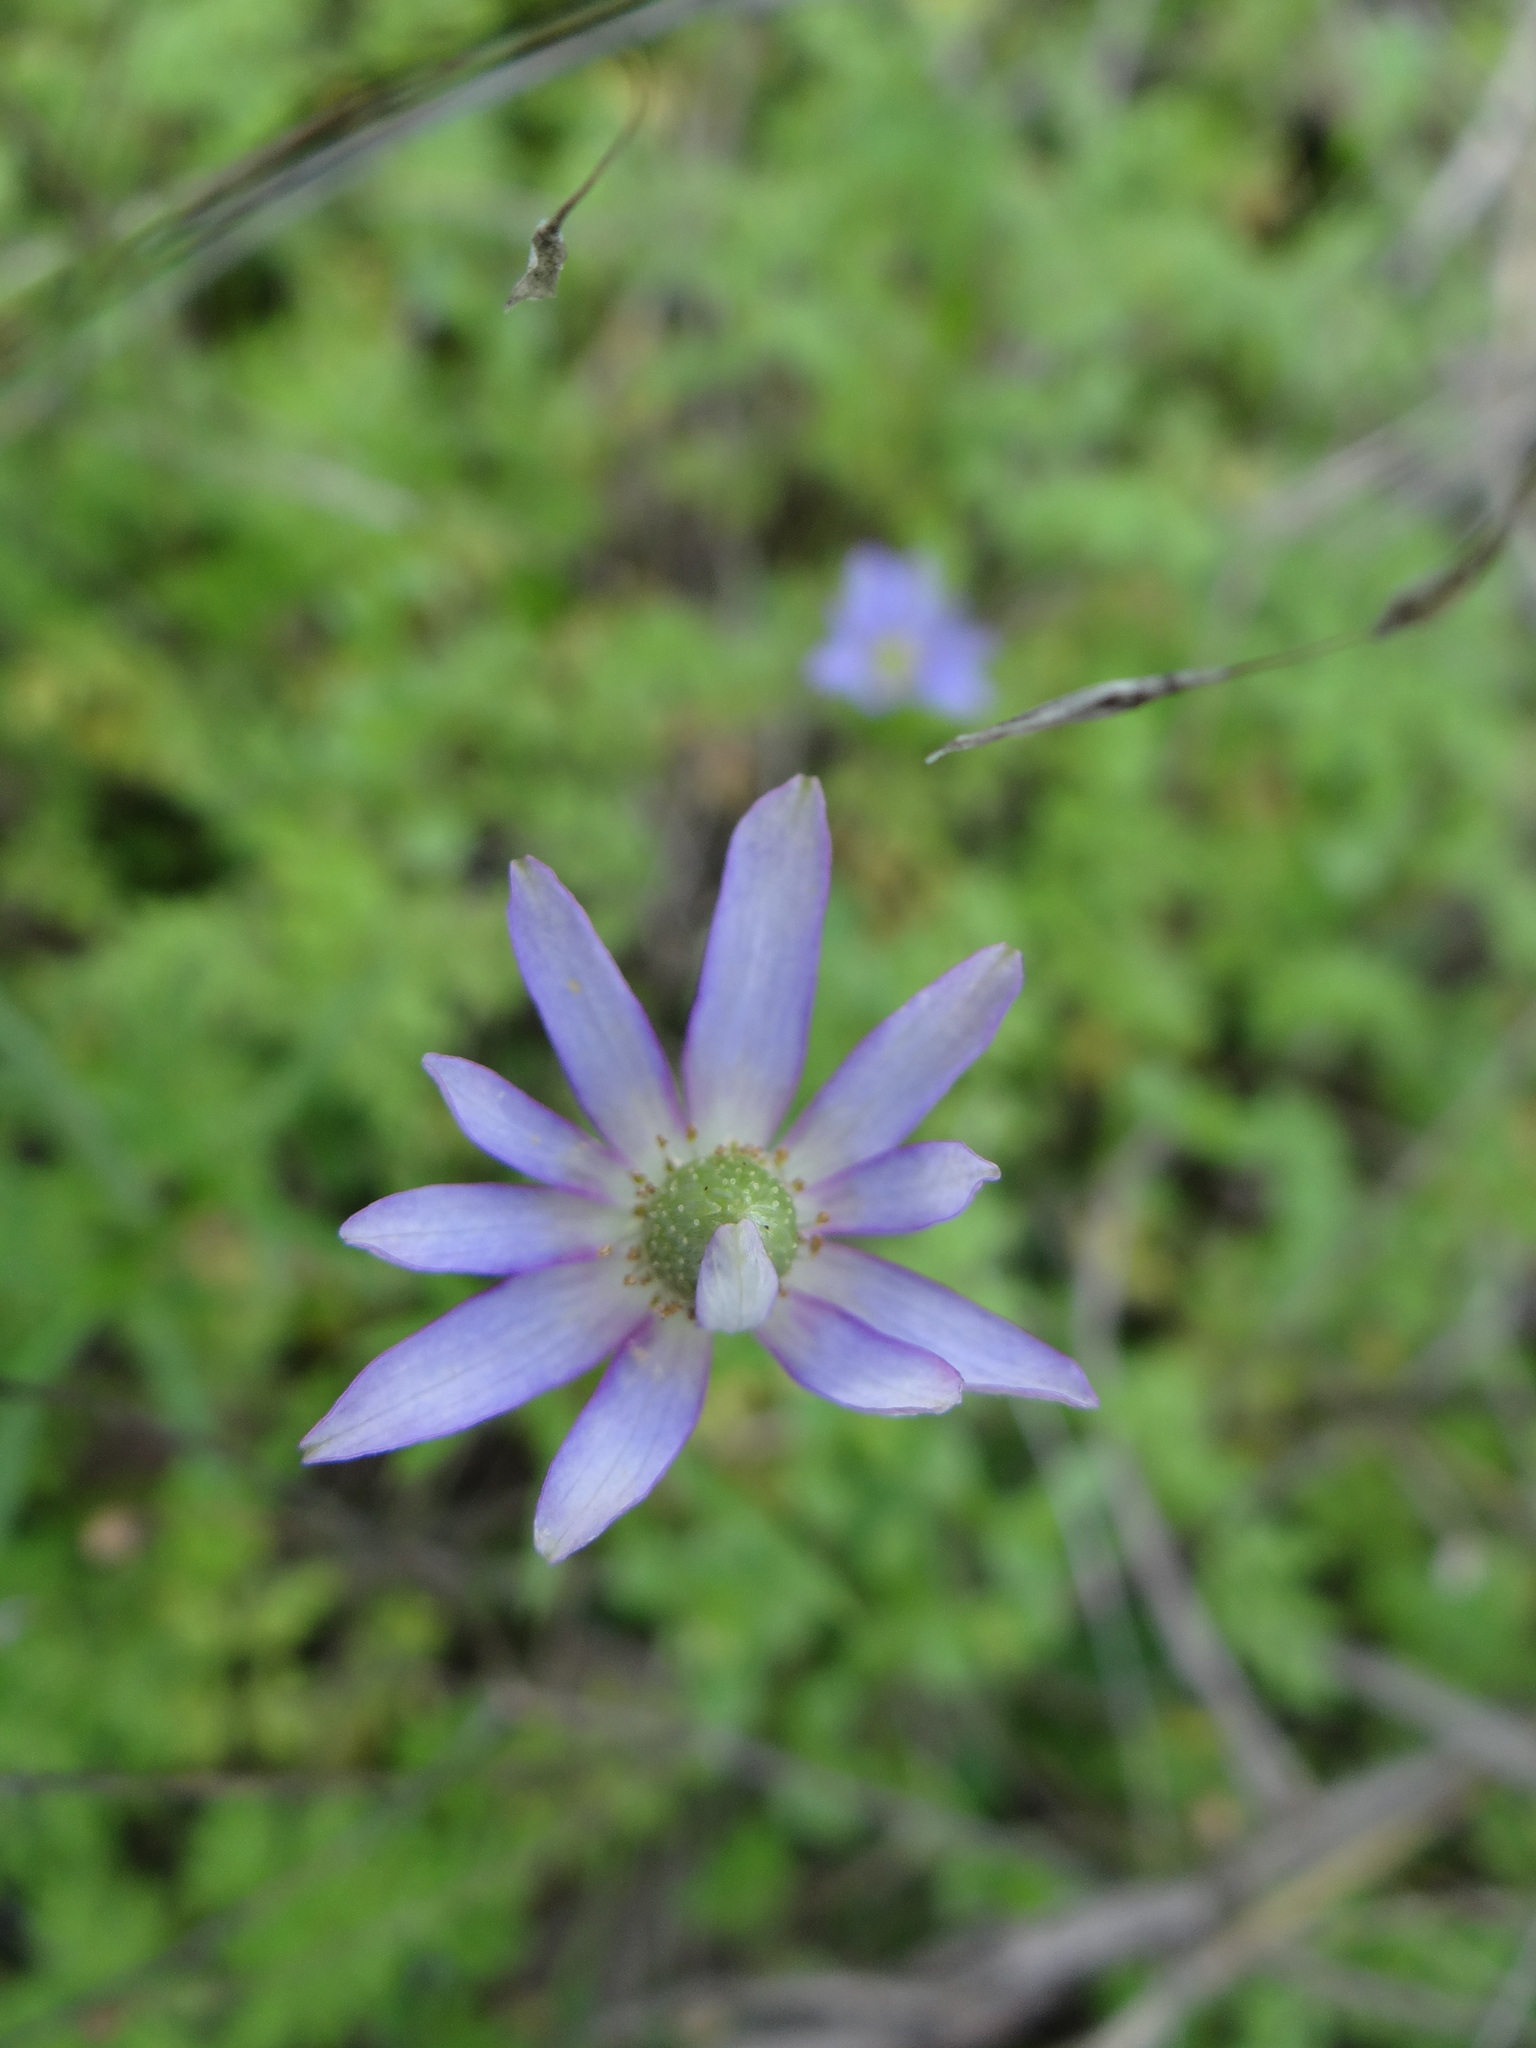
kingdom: Plantae
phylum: Tracheophyta
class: Magnoliopsida
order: Ranunculales
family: Ranunculaceae
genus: Anemone
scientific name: Anemone berlandieri
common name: Ten-petal anemone
